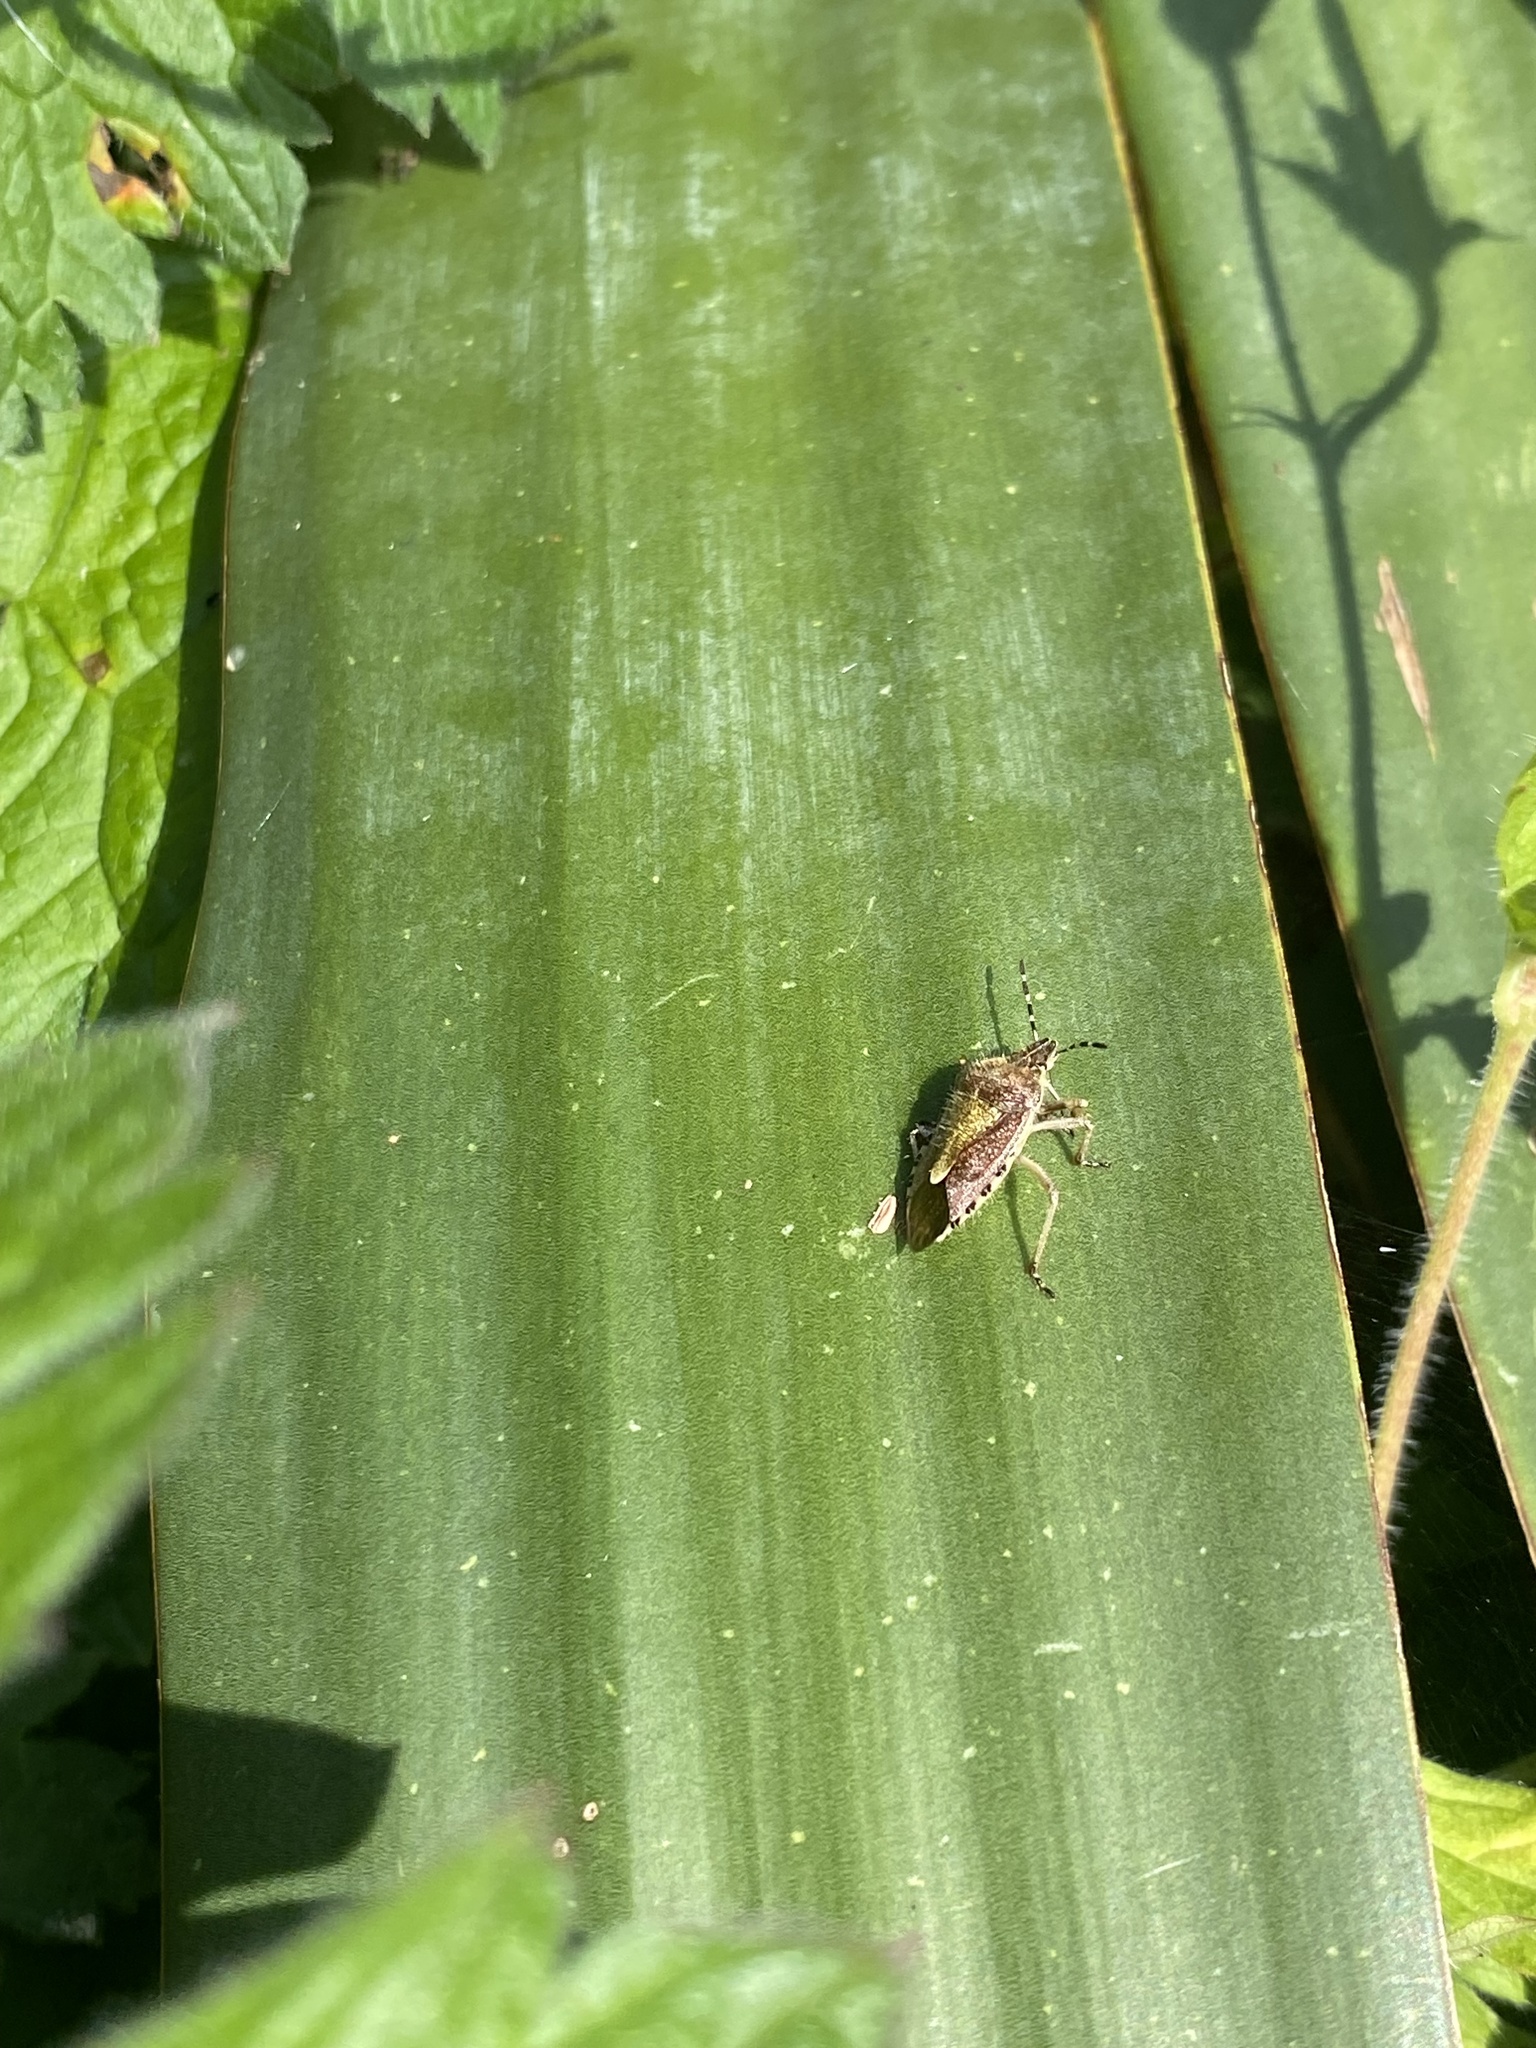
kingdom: Animalia
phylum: Arthropoda
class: Insecta
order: Hemiptera
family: Pentatomidae
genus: Dolycoris
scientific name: Dolycoris baccarum
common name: Sloe bug
